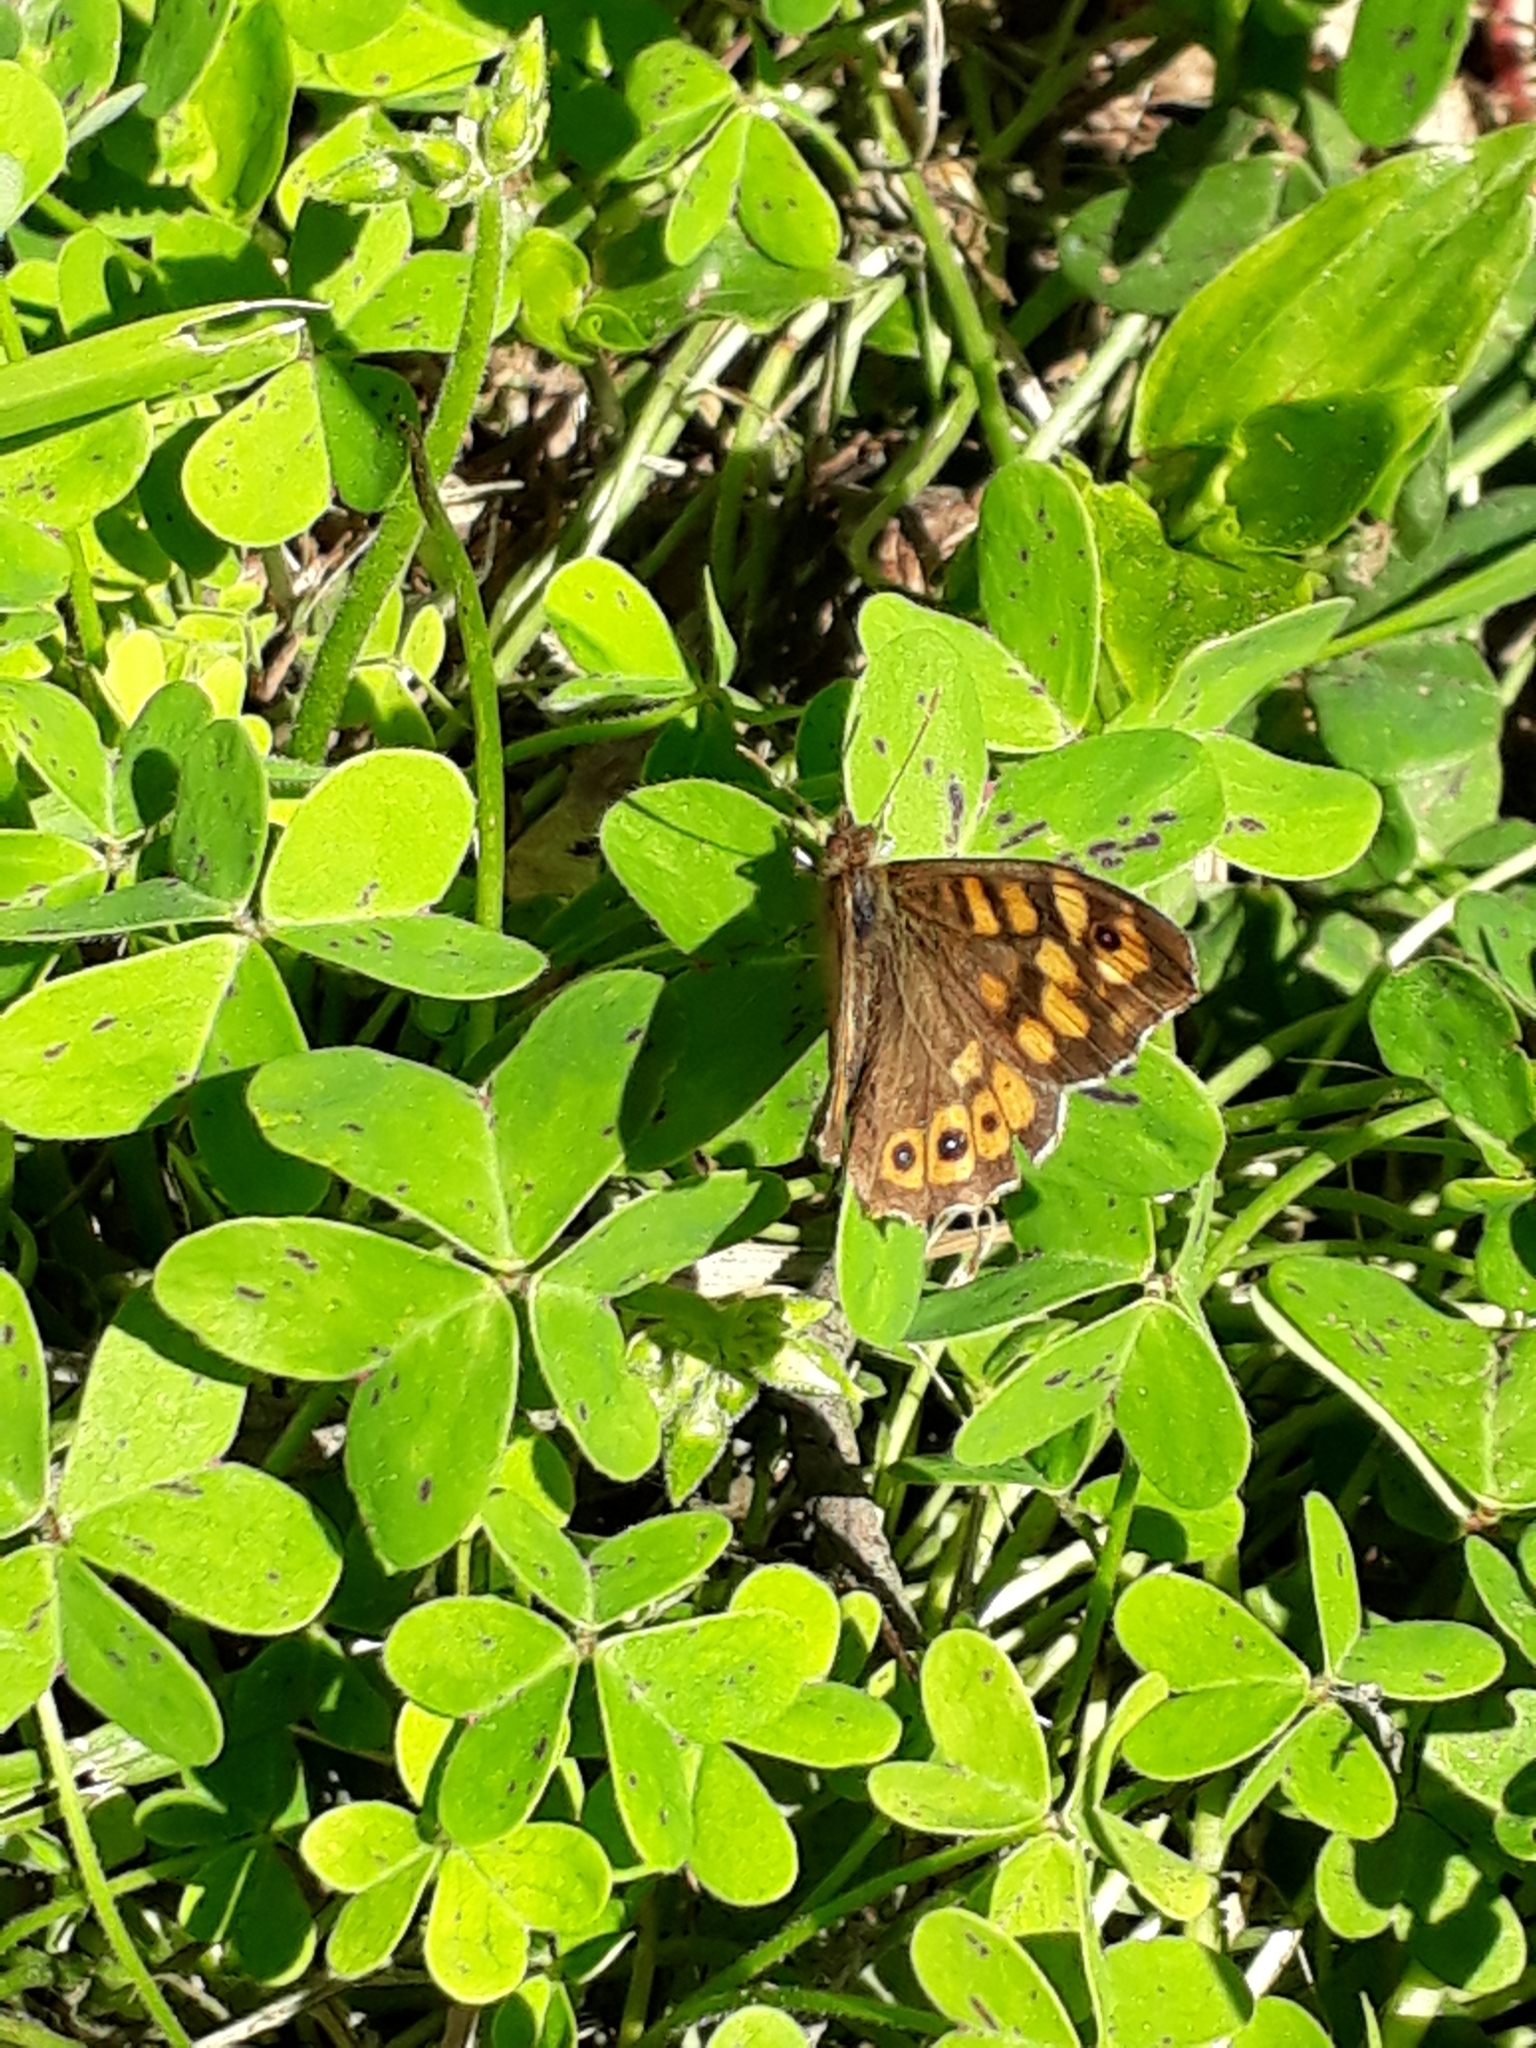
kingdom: Animalia
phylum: Arthropoda
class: Insecta
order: Lepidoptera
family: Nymphalidae
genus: Pararge
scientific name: Pararge aegeria
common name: Speckled wood
